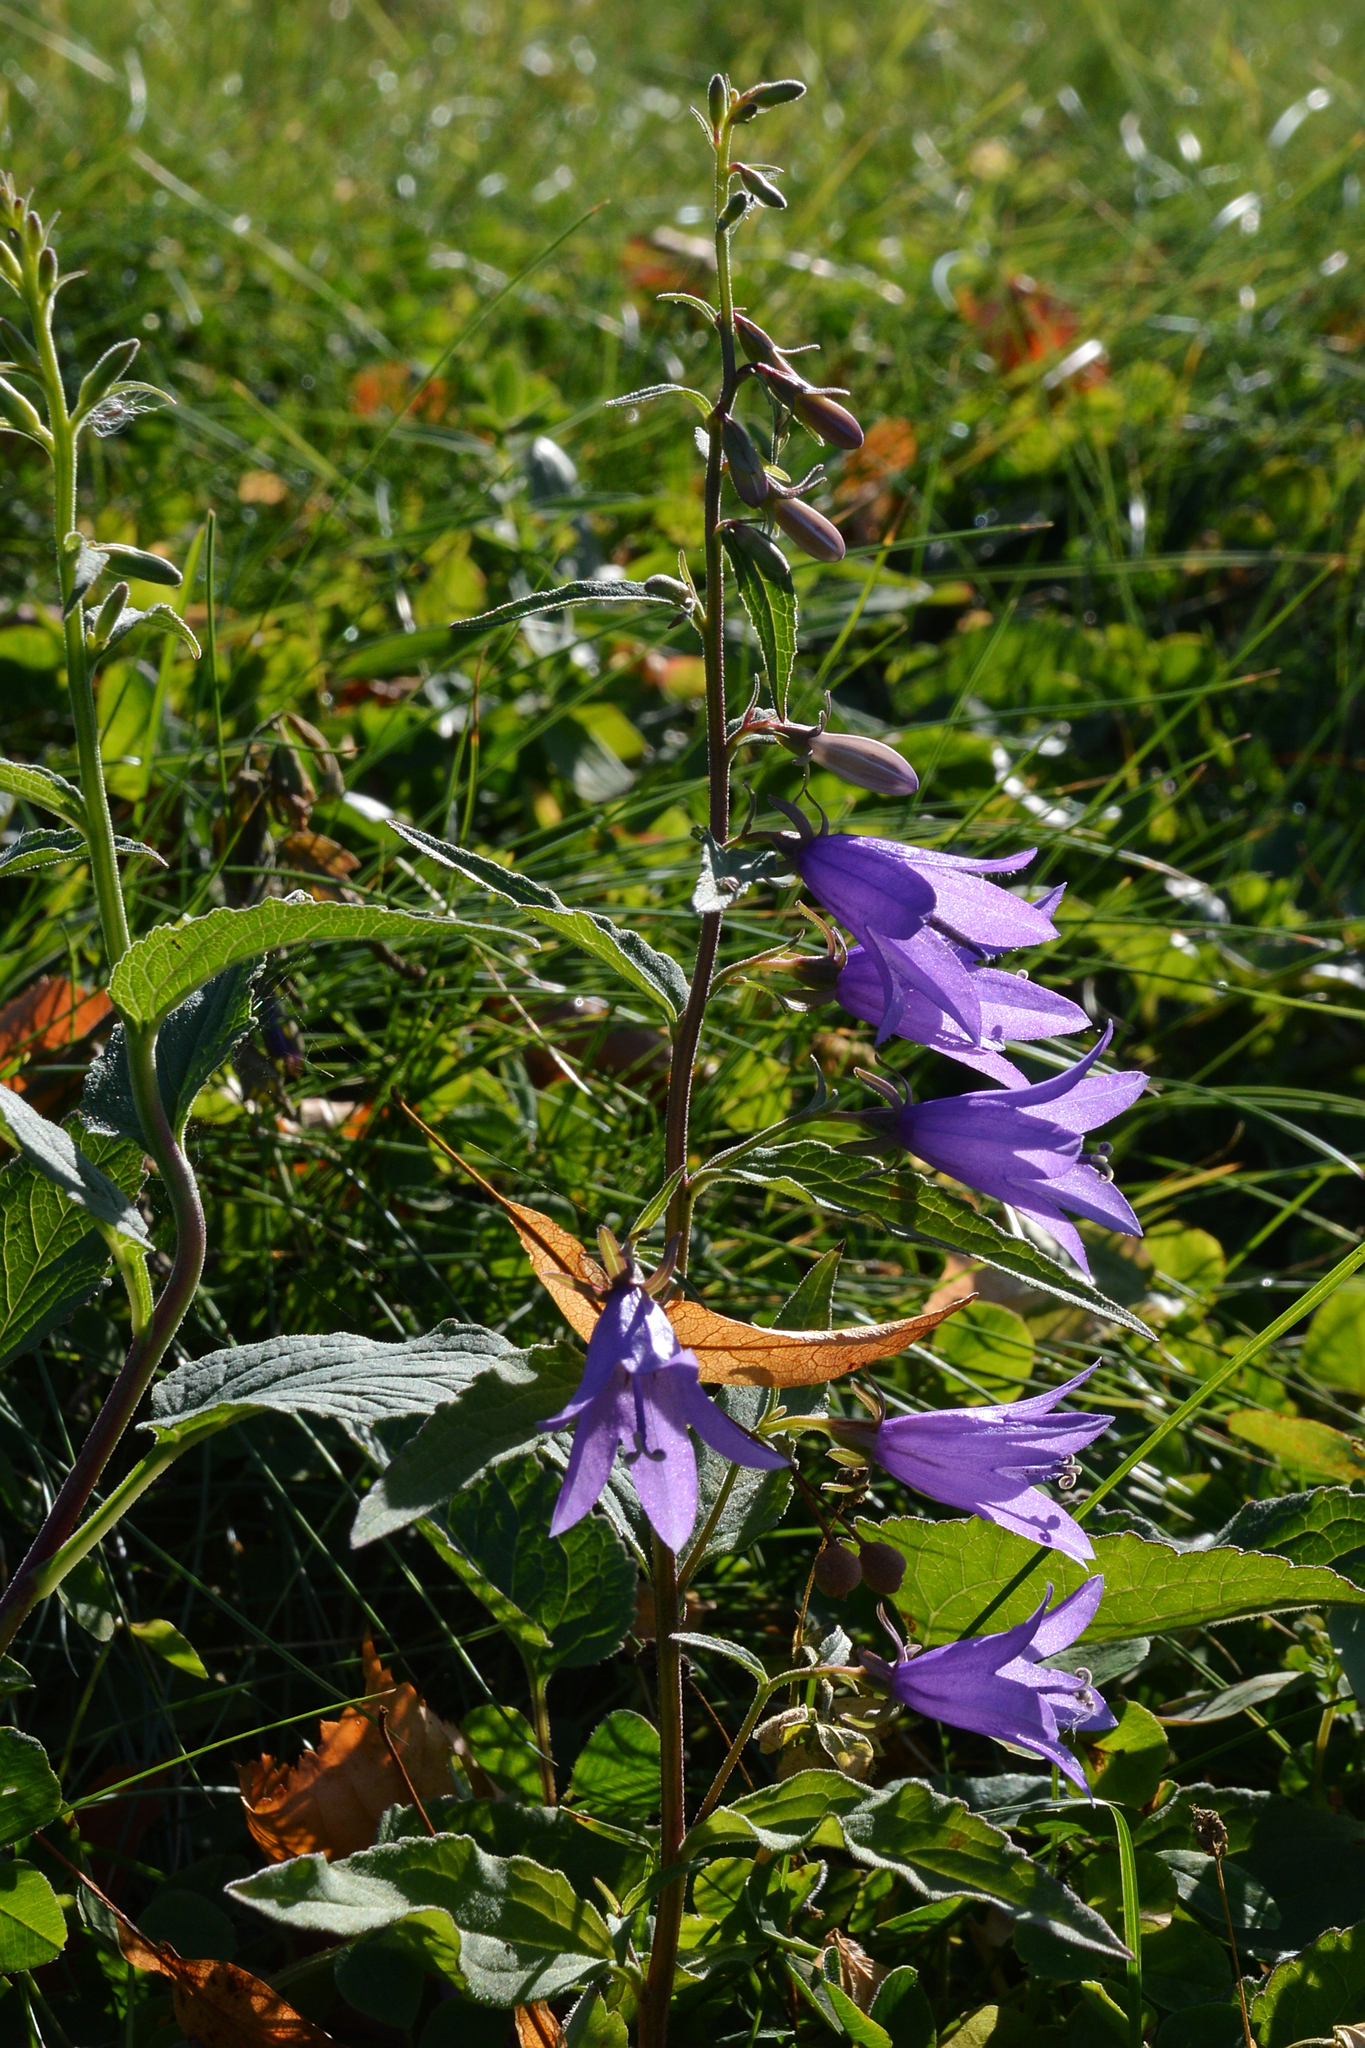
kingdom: Plantae
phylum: Tracheophyta
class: Magnoliopsida
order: Asterales
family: Campanulaceae
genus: Campanula
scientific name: Campanula rapunculoides
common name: Creeping bellflower
